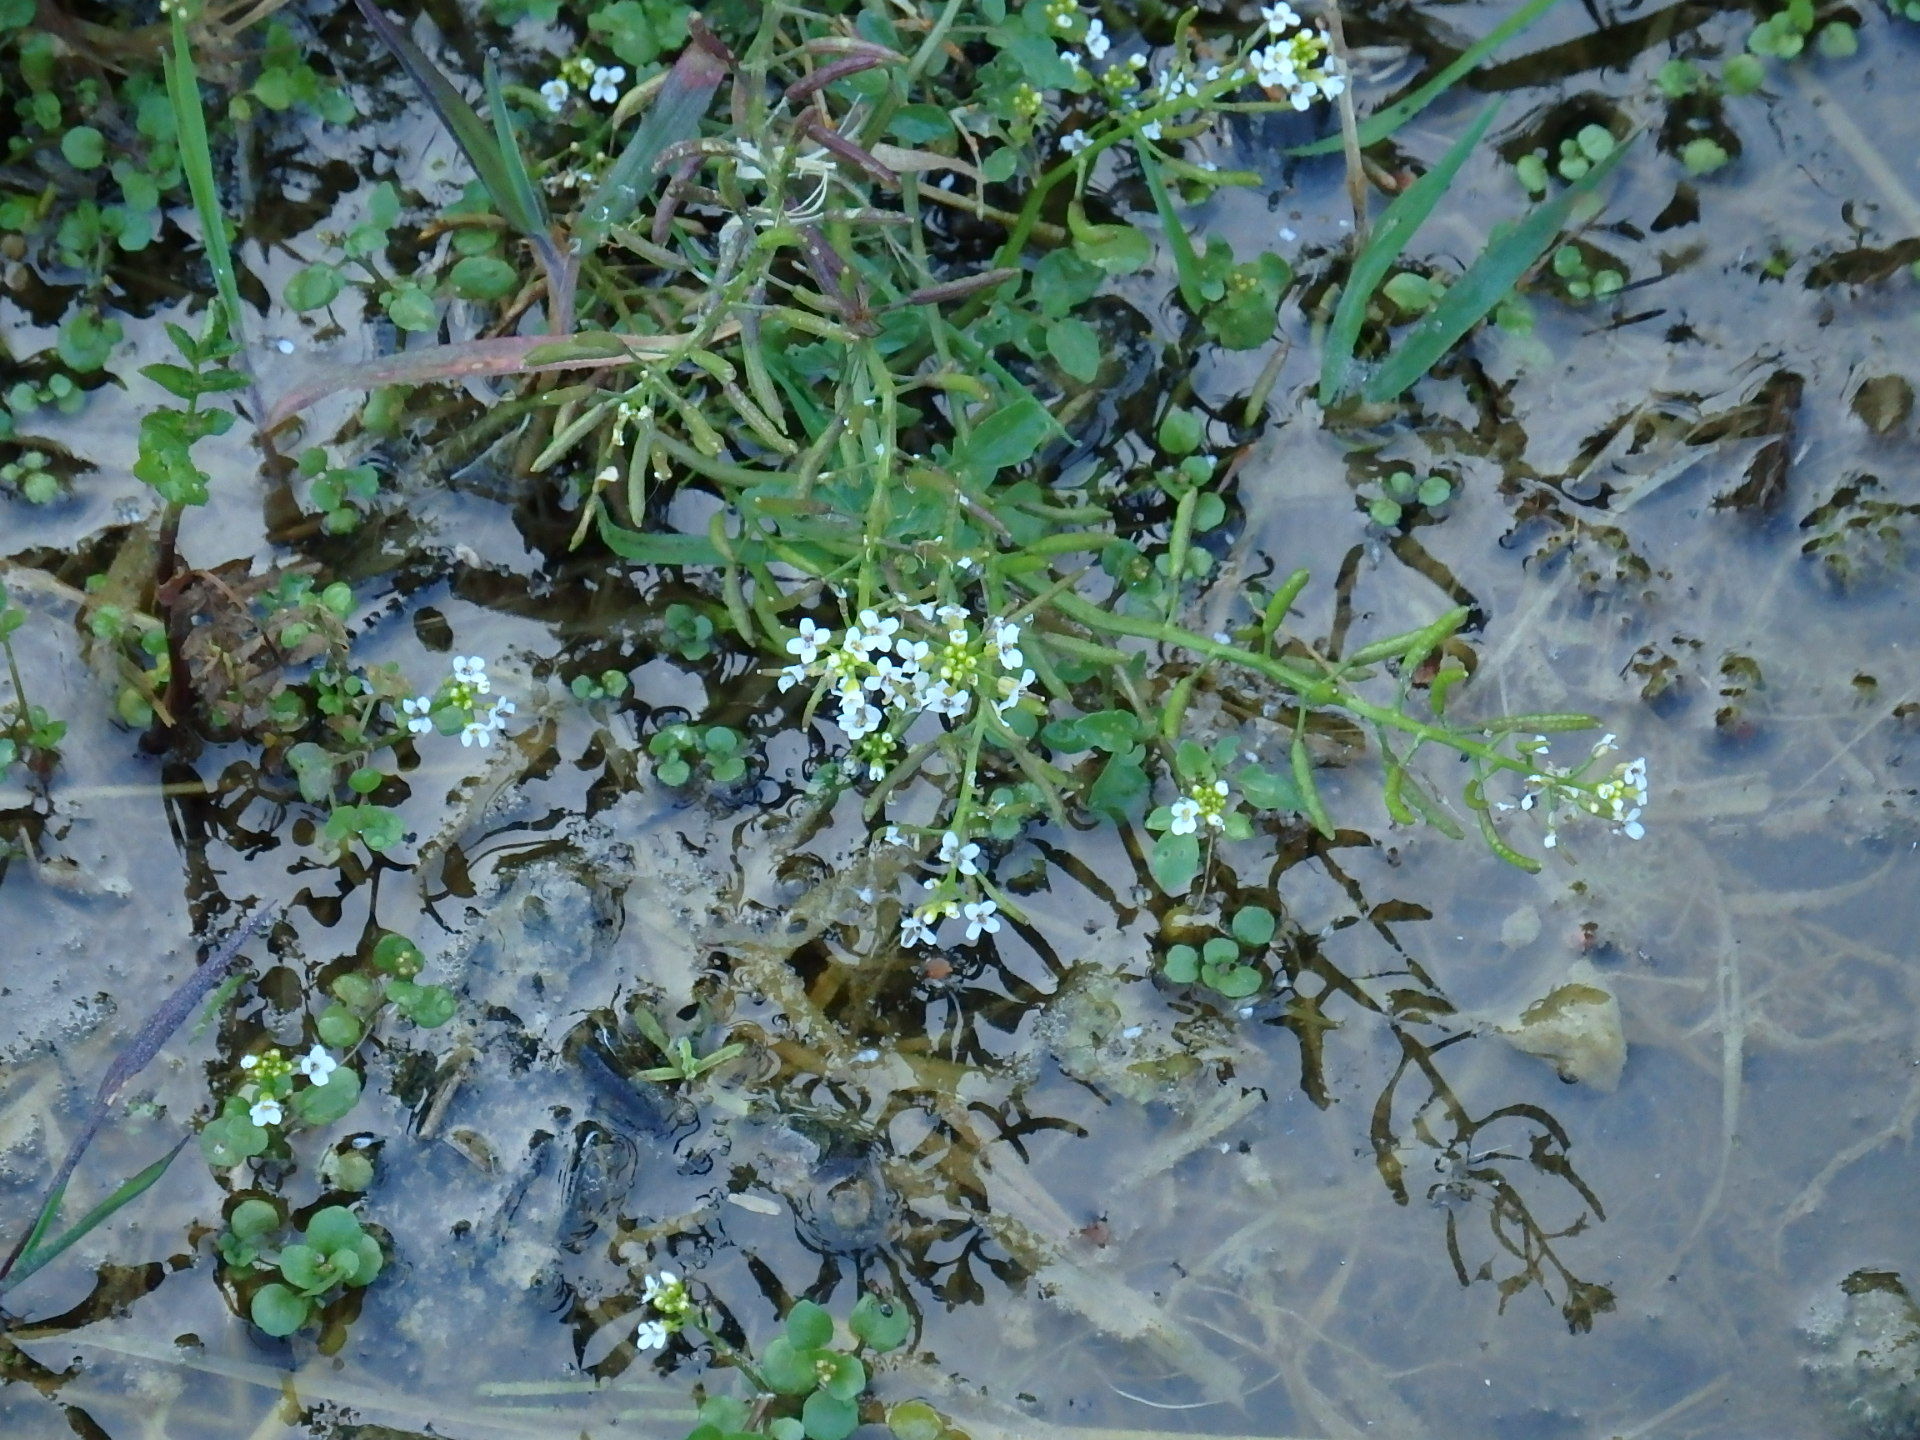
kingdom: Plantae
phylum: Tracheophyta
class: Magnoliopsida
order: Brassicales
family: Brassicaceae
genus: Nasturtium
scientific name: Nasturtium officinale
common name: Watercress
